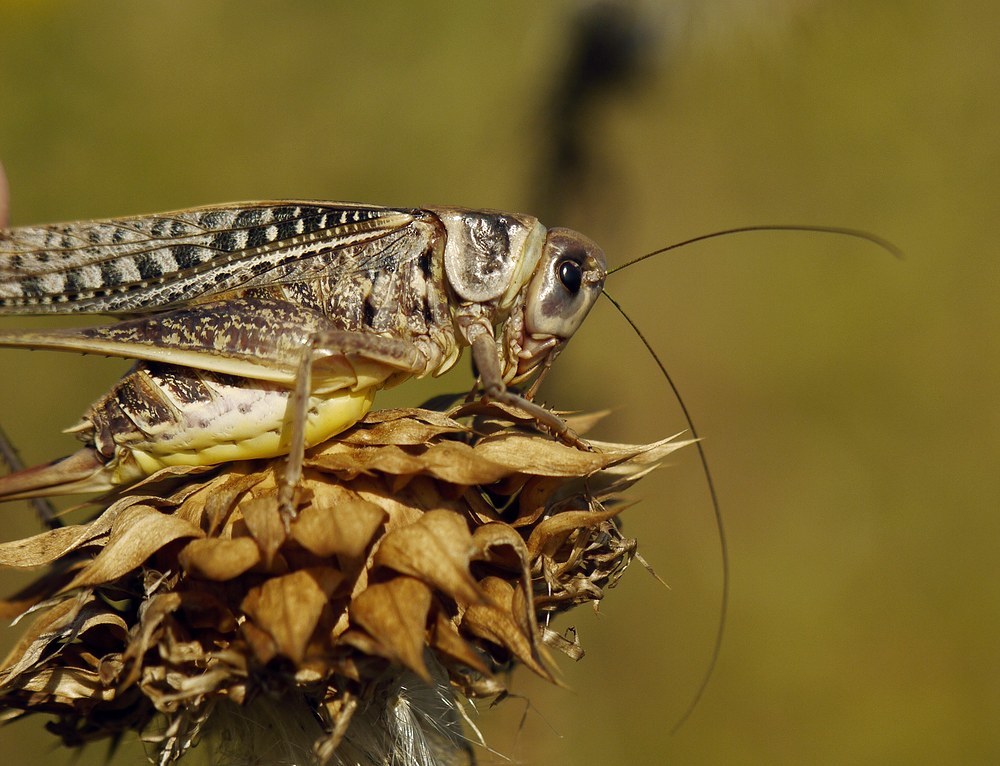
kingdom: Animalia
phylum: Arthropoda
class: Insecta
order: Orthoptera
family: Tettigoniidae
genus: Decticus
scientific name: Decticus verrucivorus
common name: Wart-biter
